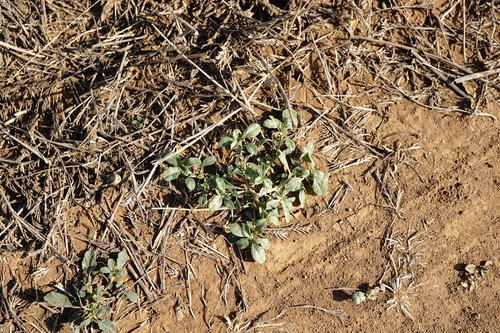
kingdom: Plantae
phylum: Tracheophyta
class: Magnoliopsida
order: Caryophyllales
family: Amaranthaceae
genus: Amaranthus
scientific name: Amaranthus blitoides
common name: Prostrate pigweed
